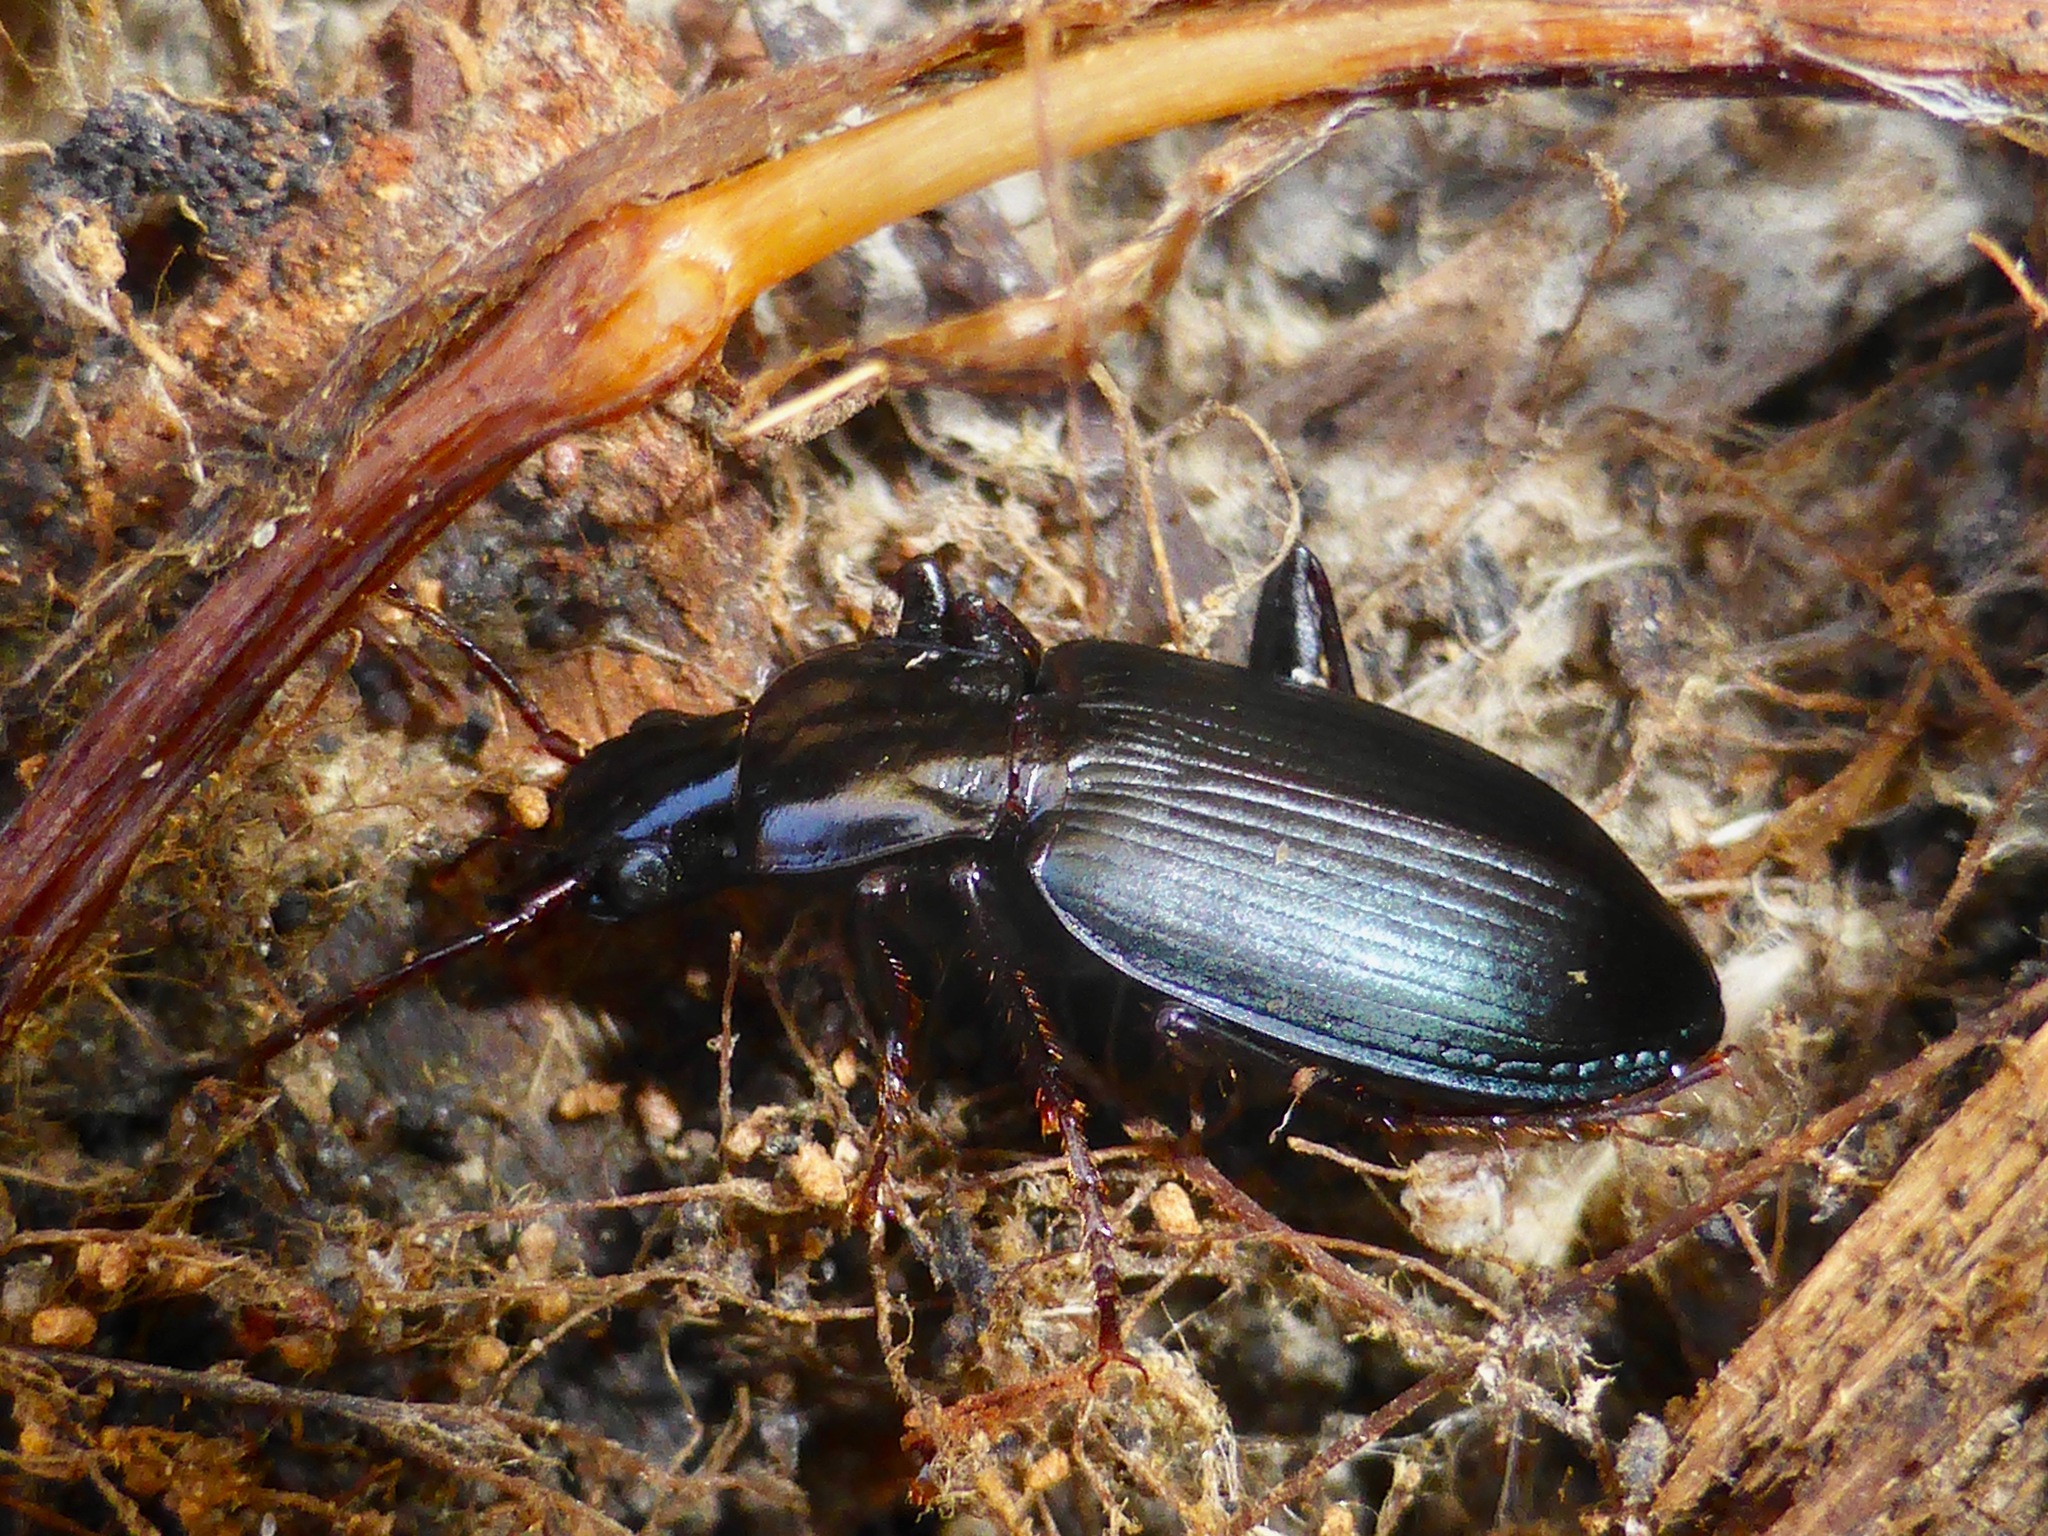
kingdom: Animalia
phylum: Arthropoda
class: Insecta
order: Coleoptera
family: Carabidae
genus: Laemostenus
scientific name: Laemostenus complanatus
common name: Cosmopolitan ground beetle
